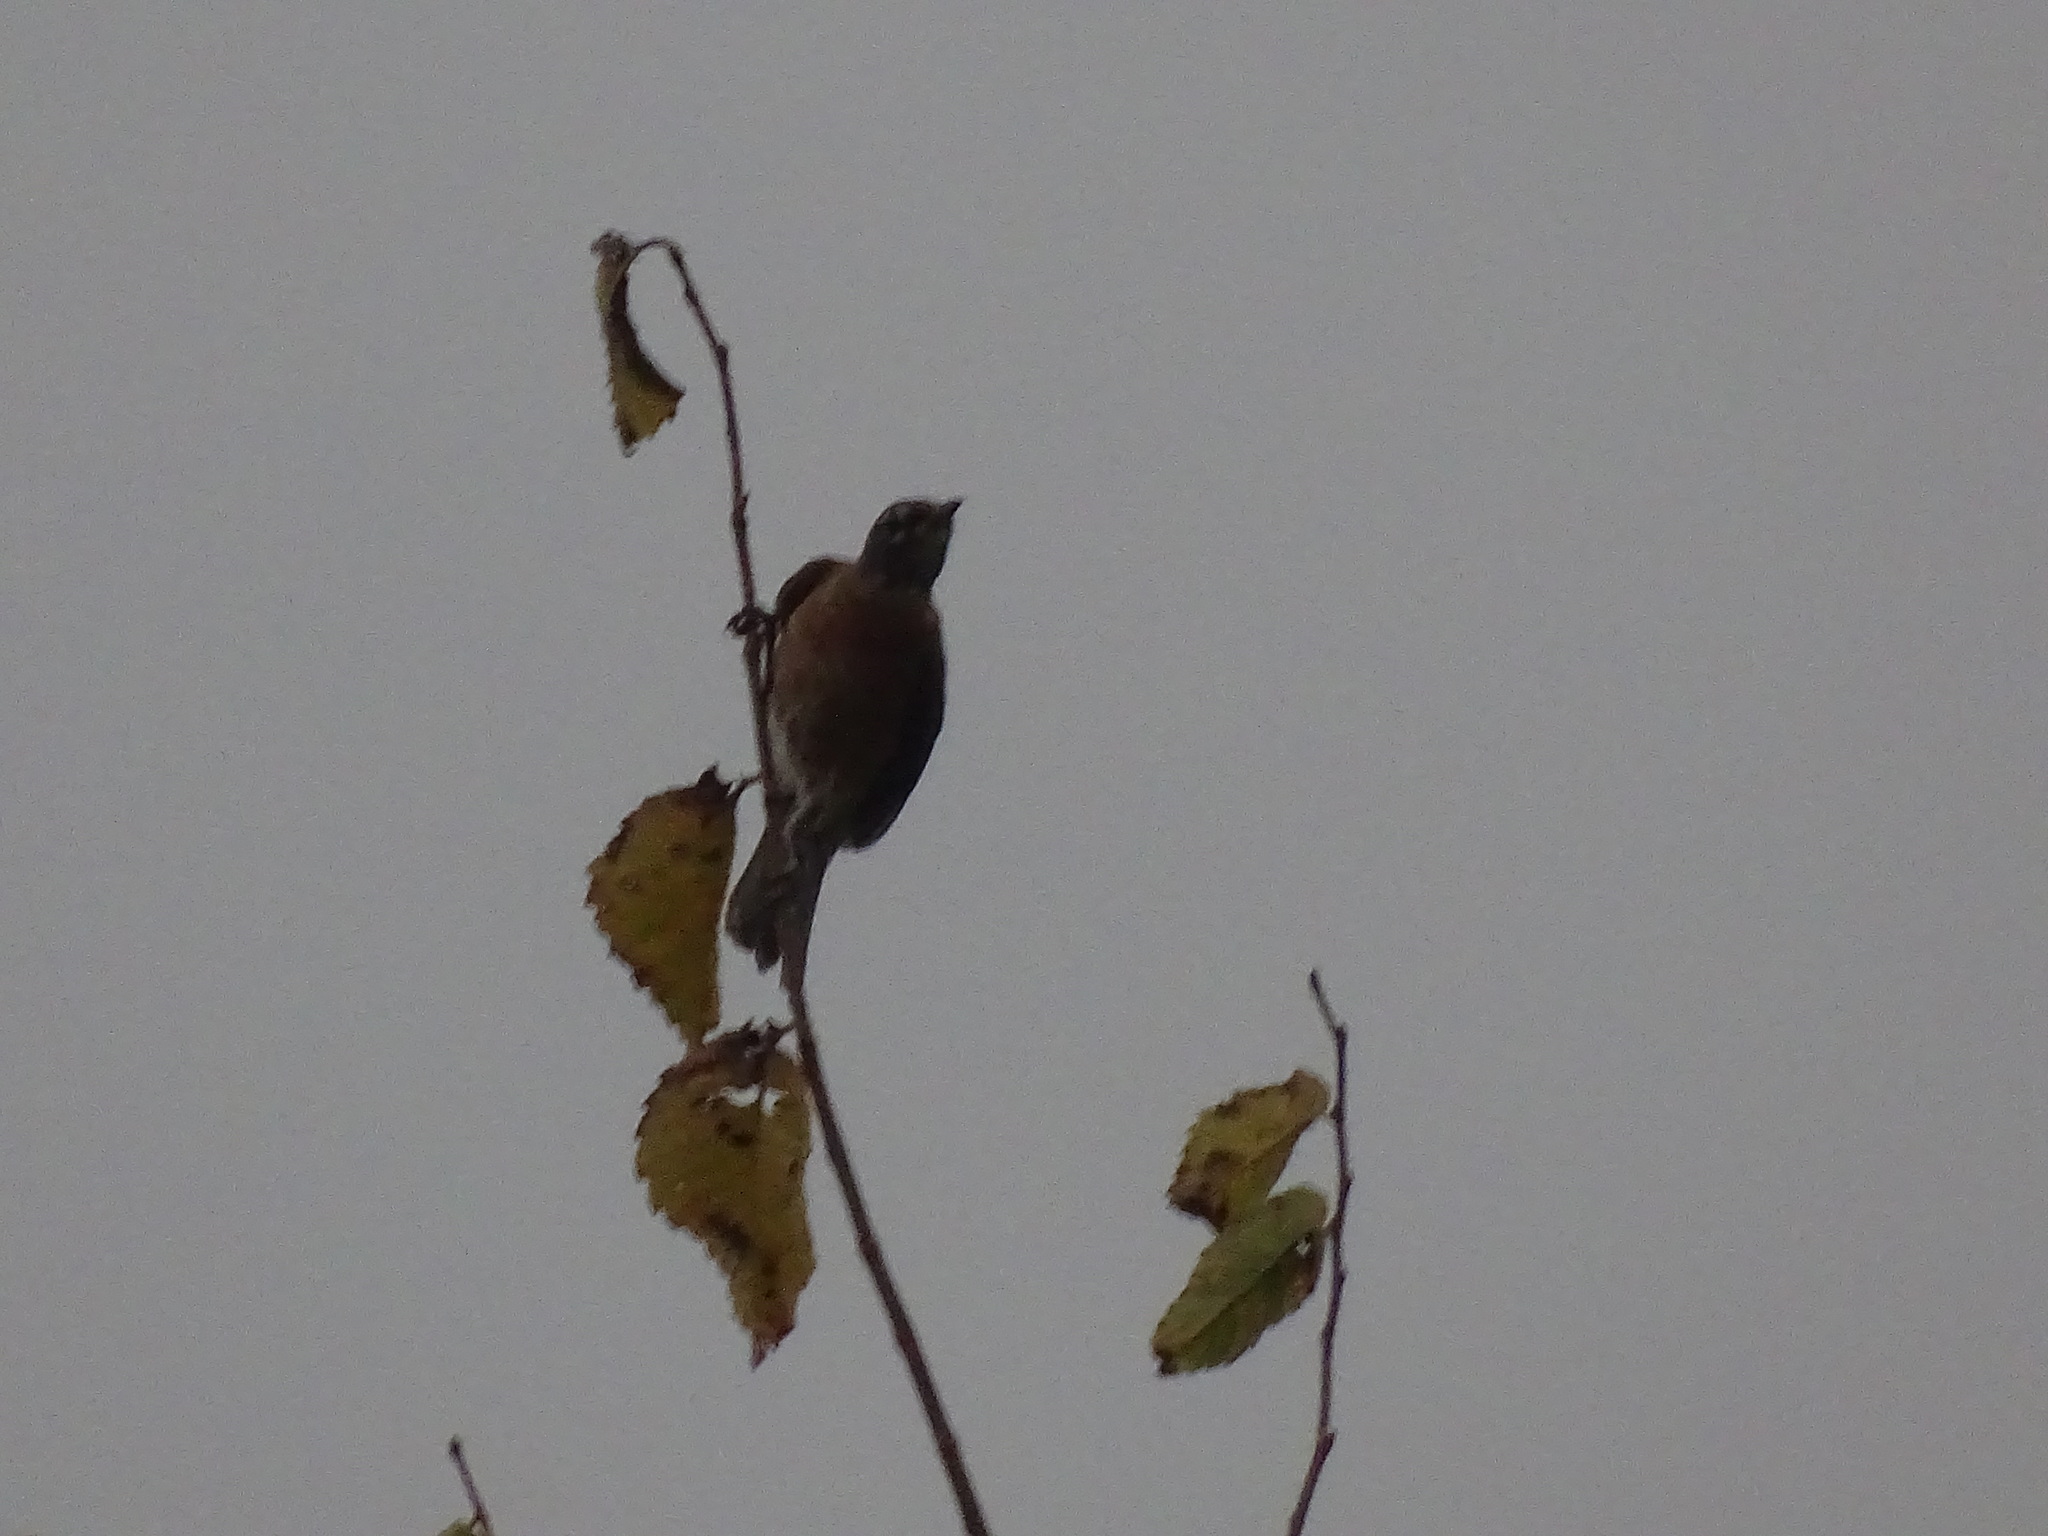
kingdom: Animalia
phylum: Chordata
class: Aves
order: Passeriformes
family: Turdidae
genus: Turdus
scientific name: Turdus migratorius
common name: American robin
